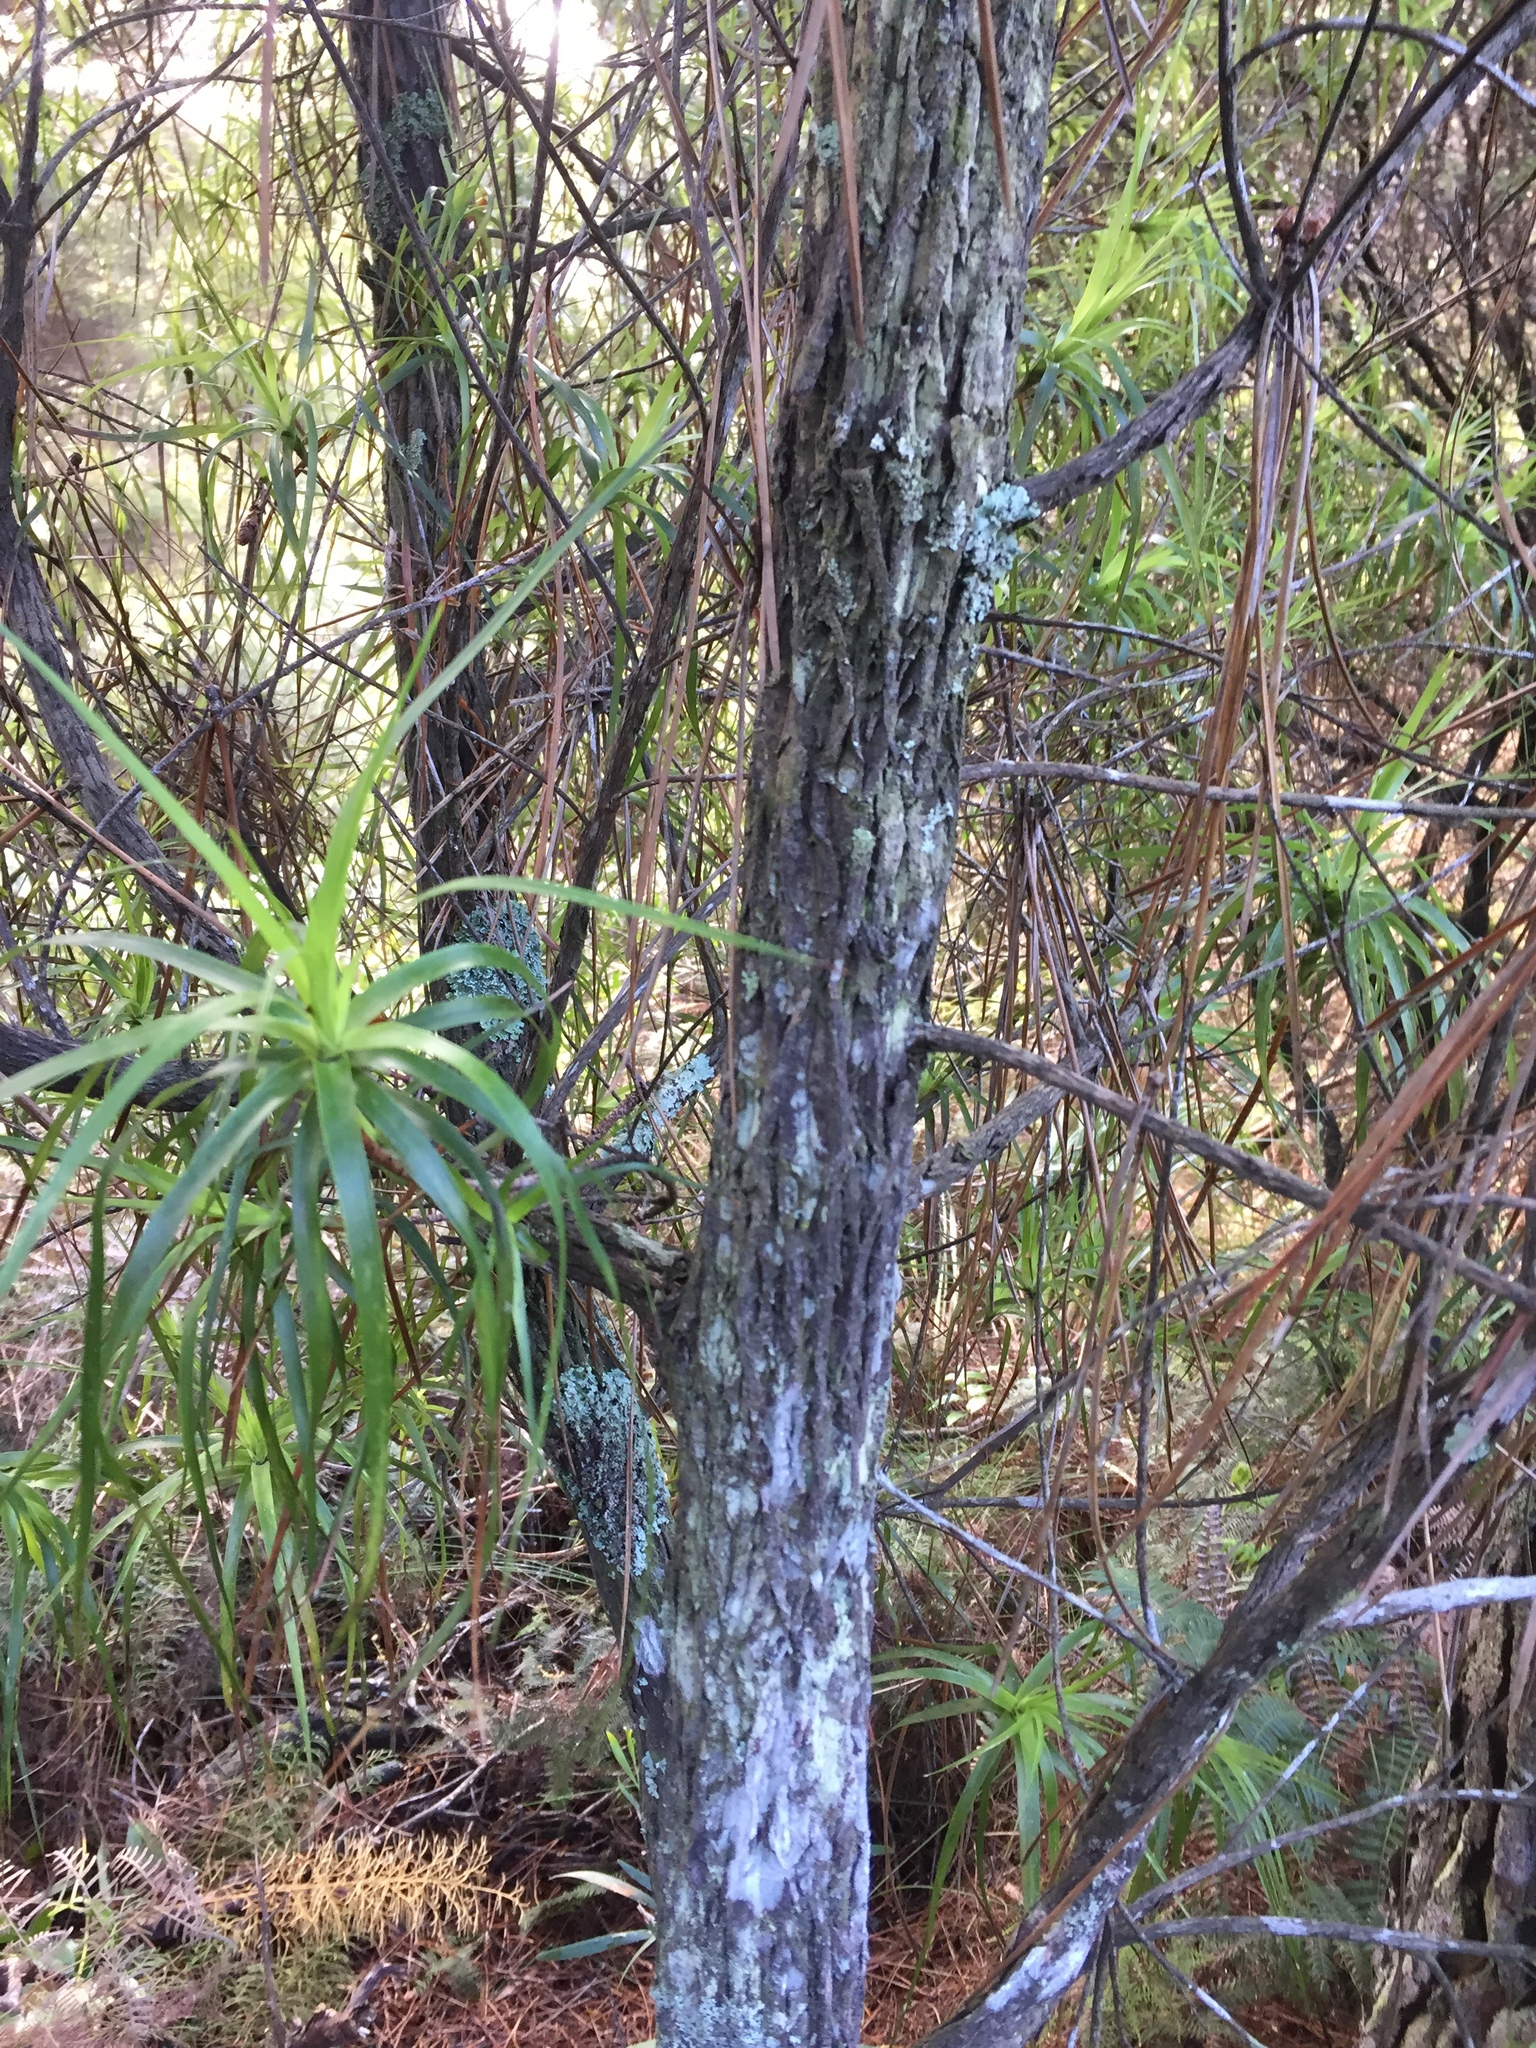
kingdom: Plantae
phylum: Tracheophyta
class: Magnoliopsida
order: Ericales
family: Ericaceae
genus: Dracophyllum
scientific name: Dracophyllum sinclairii
